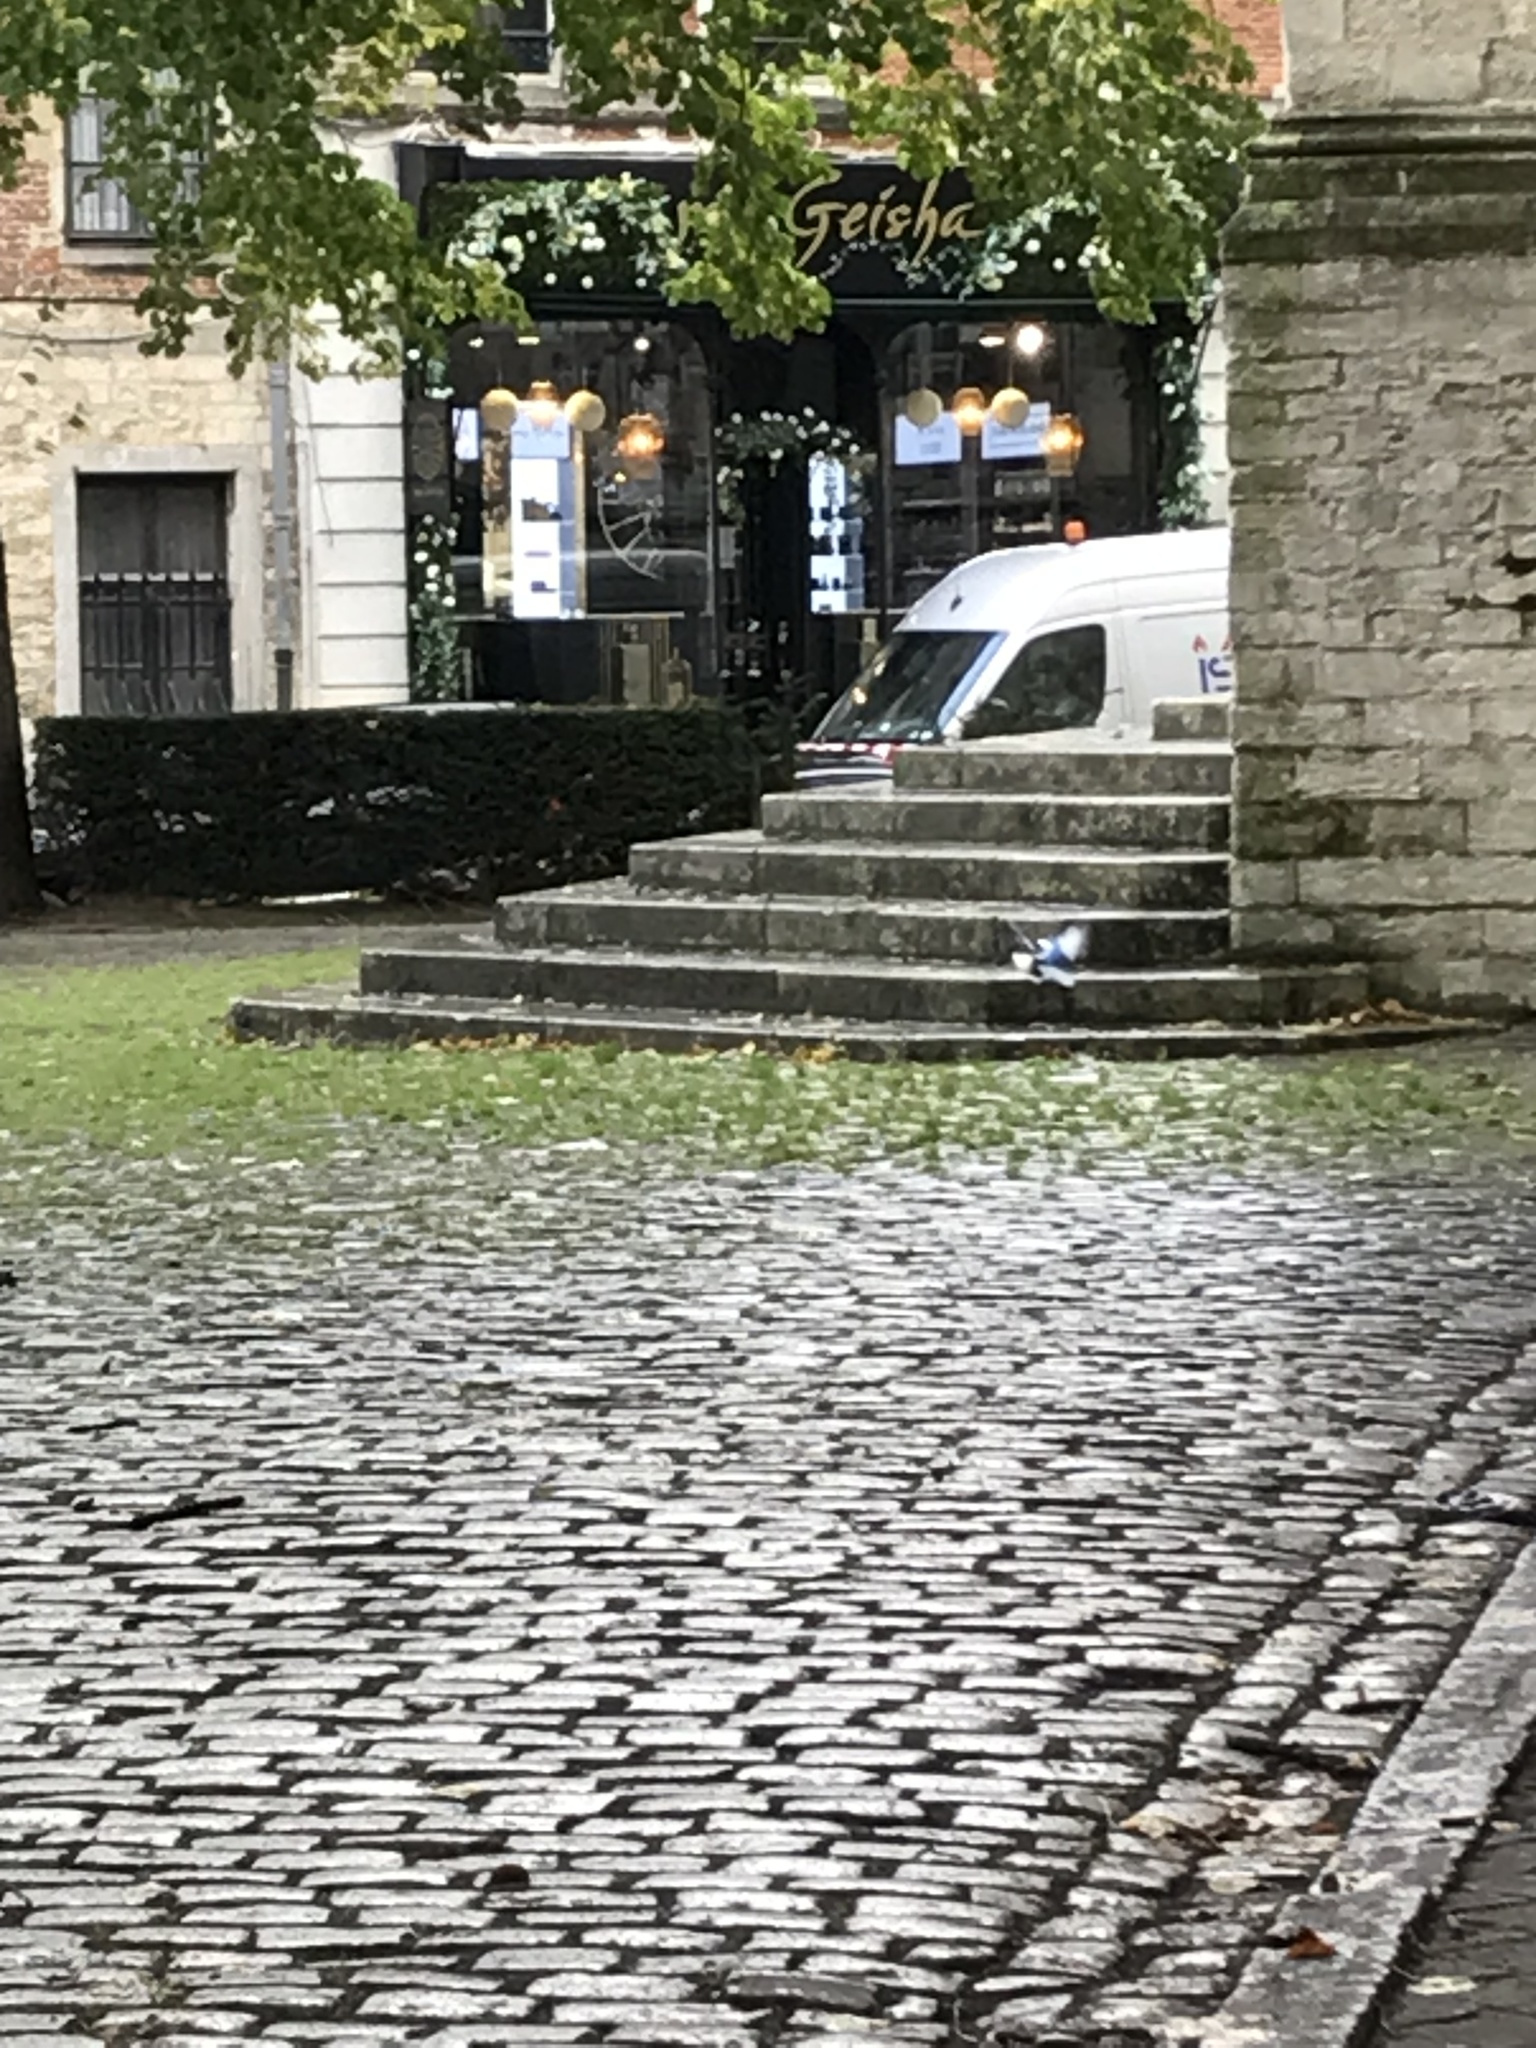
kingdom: Animalia
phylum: Chordata
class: Aves
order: Passeriformes
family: Corvidae
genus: Pica
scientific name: Pica pica
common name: Eurasian magpie
